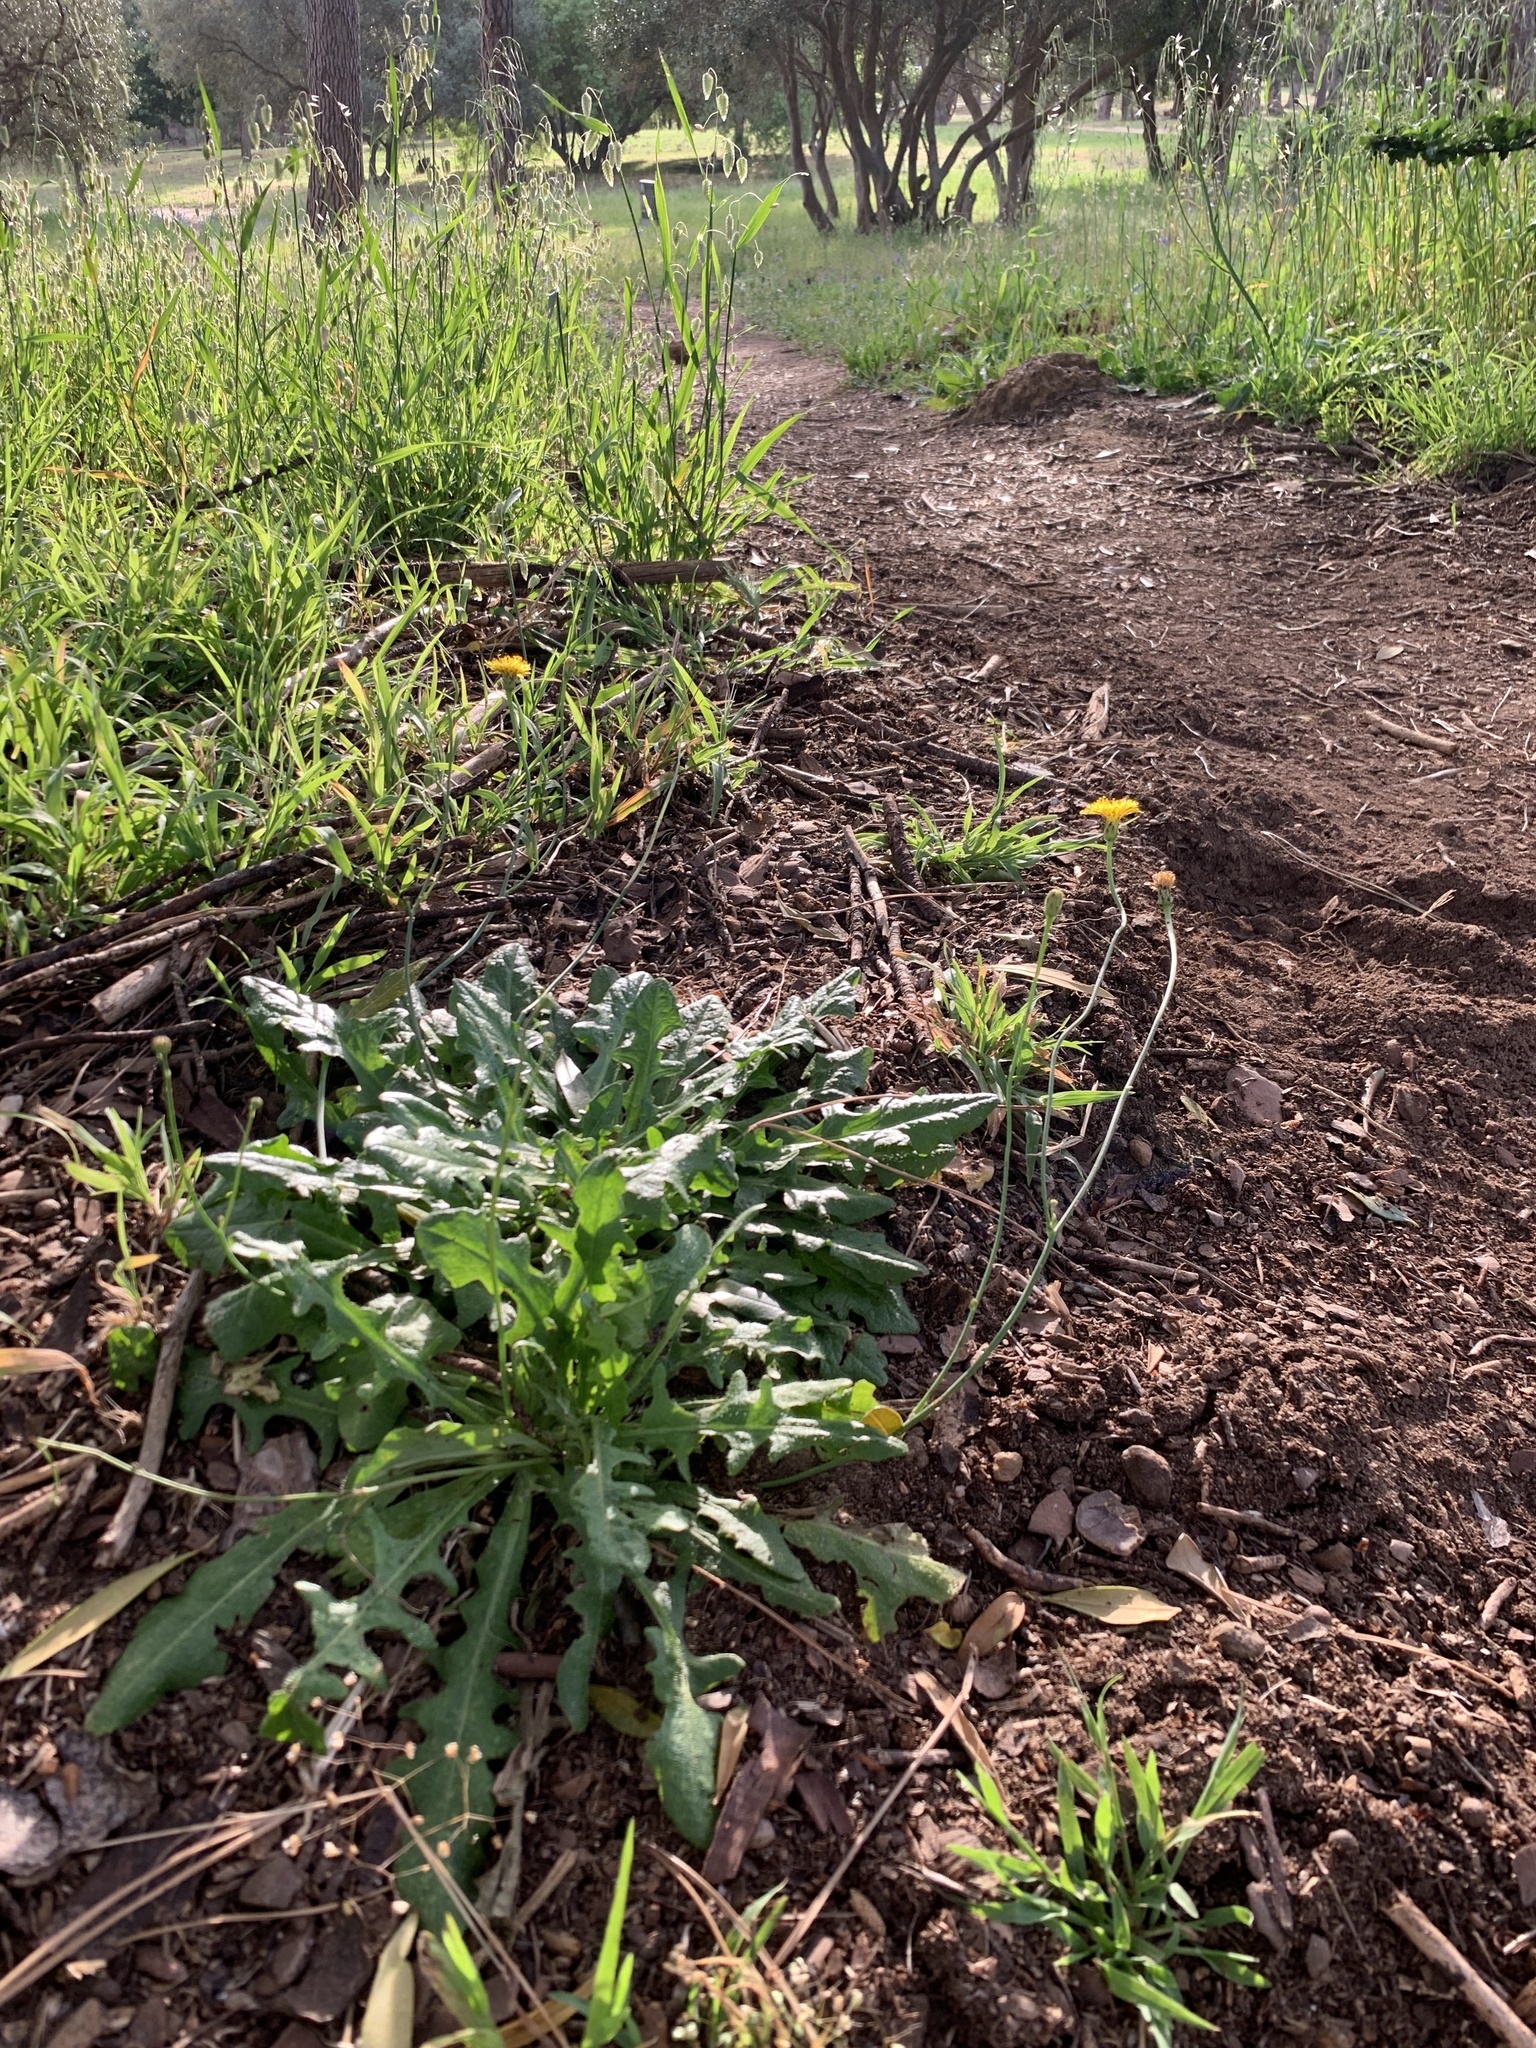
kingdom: Plantae
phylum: Tracheophyta
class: Magnoliopsida
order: Asterales
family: Asteraceae
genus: Hypochaeris
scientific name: Hypochaeris radicata
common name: Flatweed
